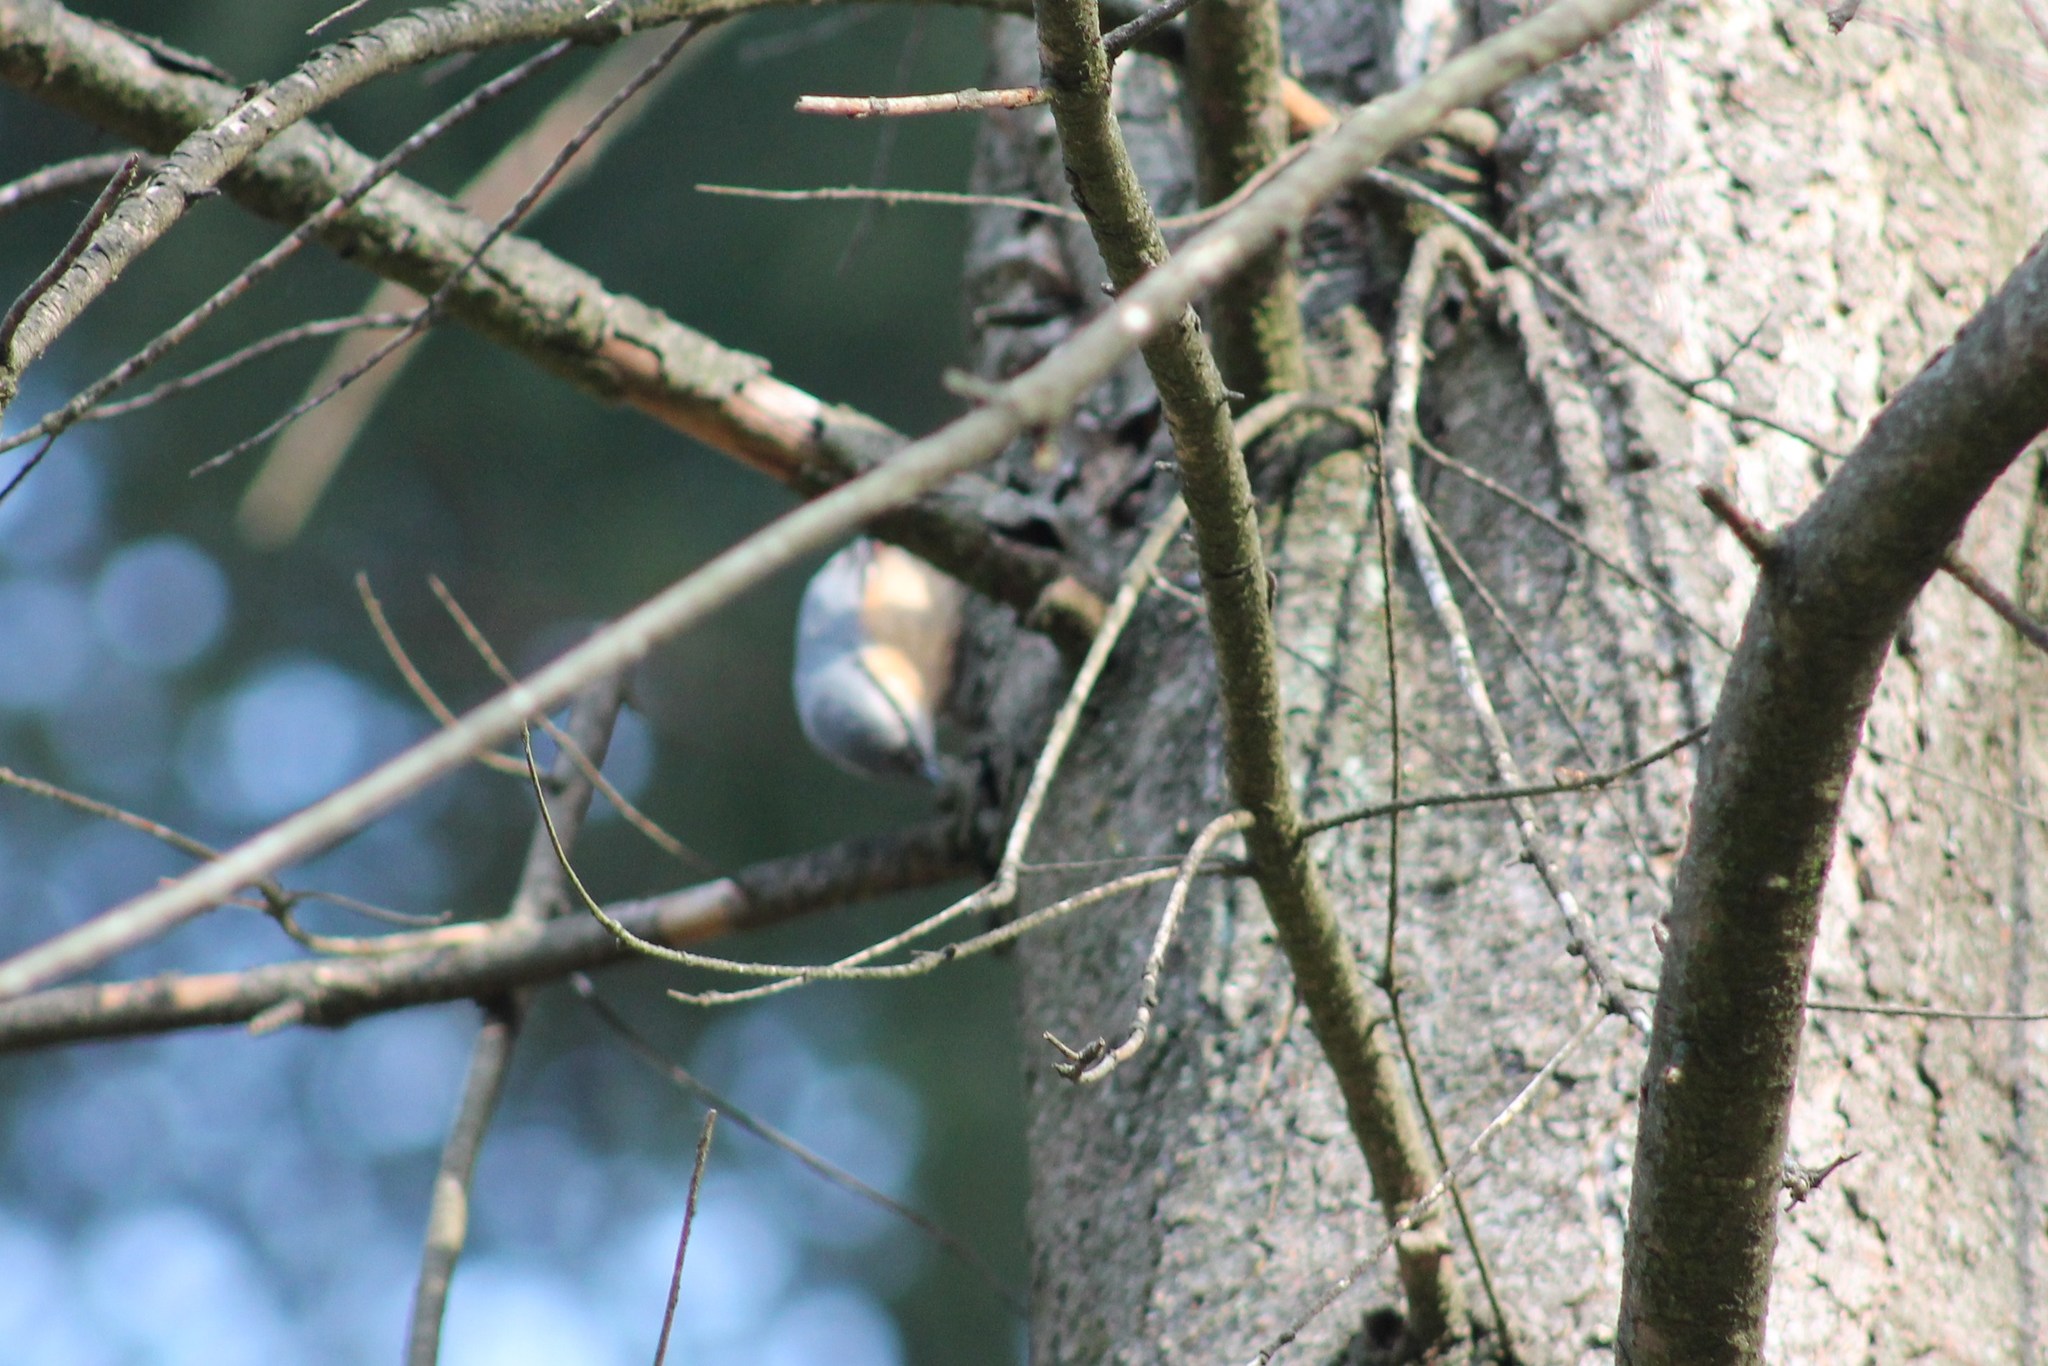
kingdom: Animalia
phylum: Chordata
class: Aves
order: Passeriformes
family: Sittidae
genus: Sitta
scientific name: Sitta europaea
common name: Eurasian nuthatch
